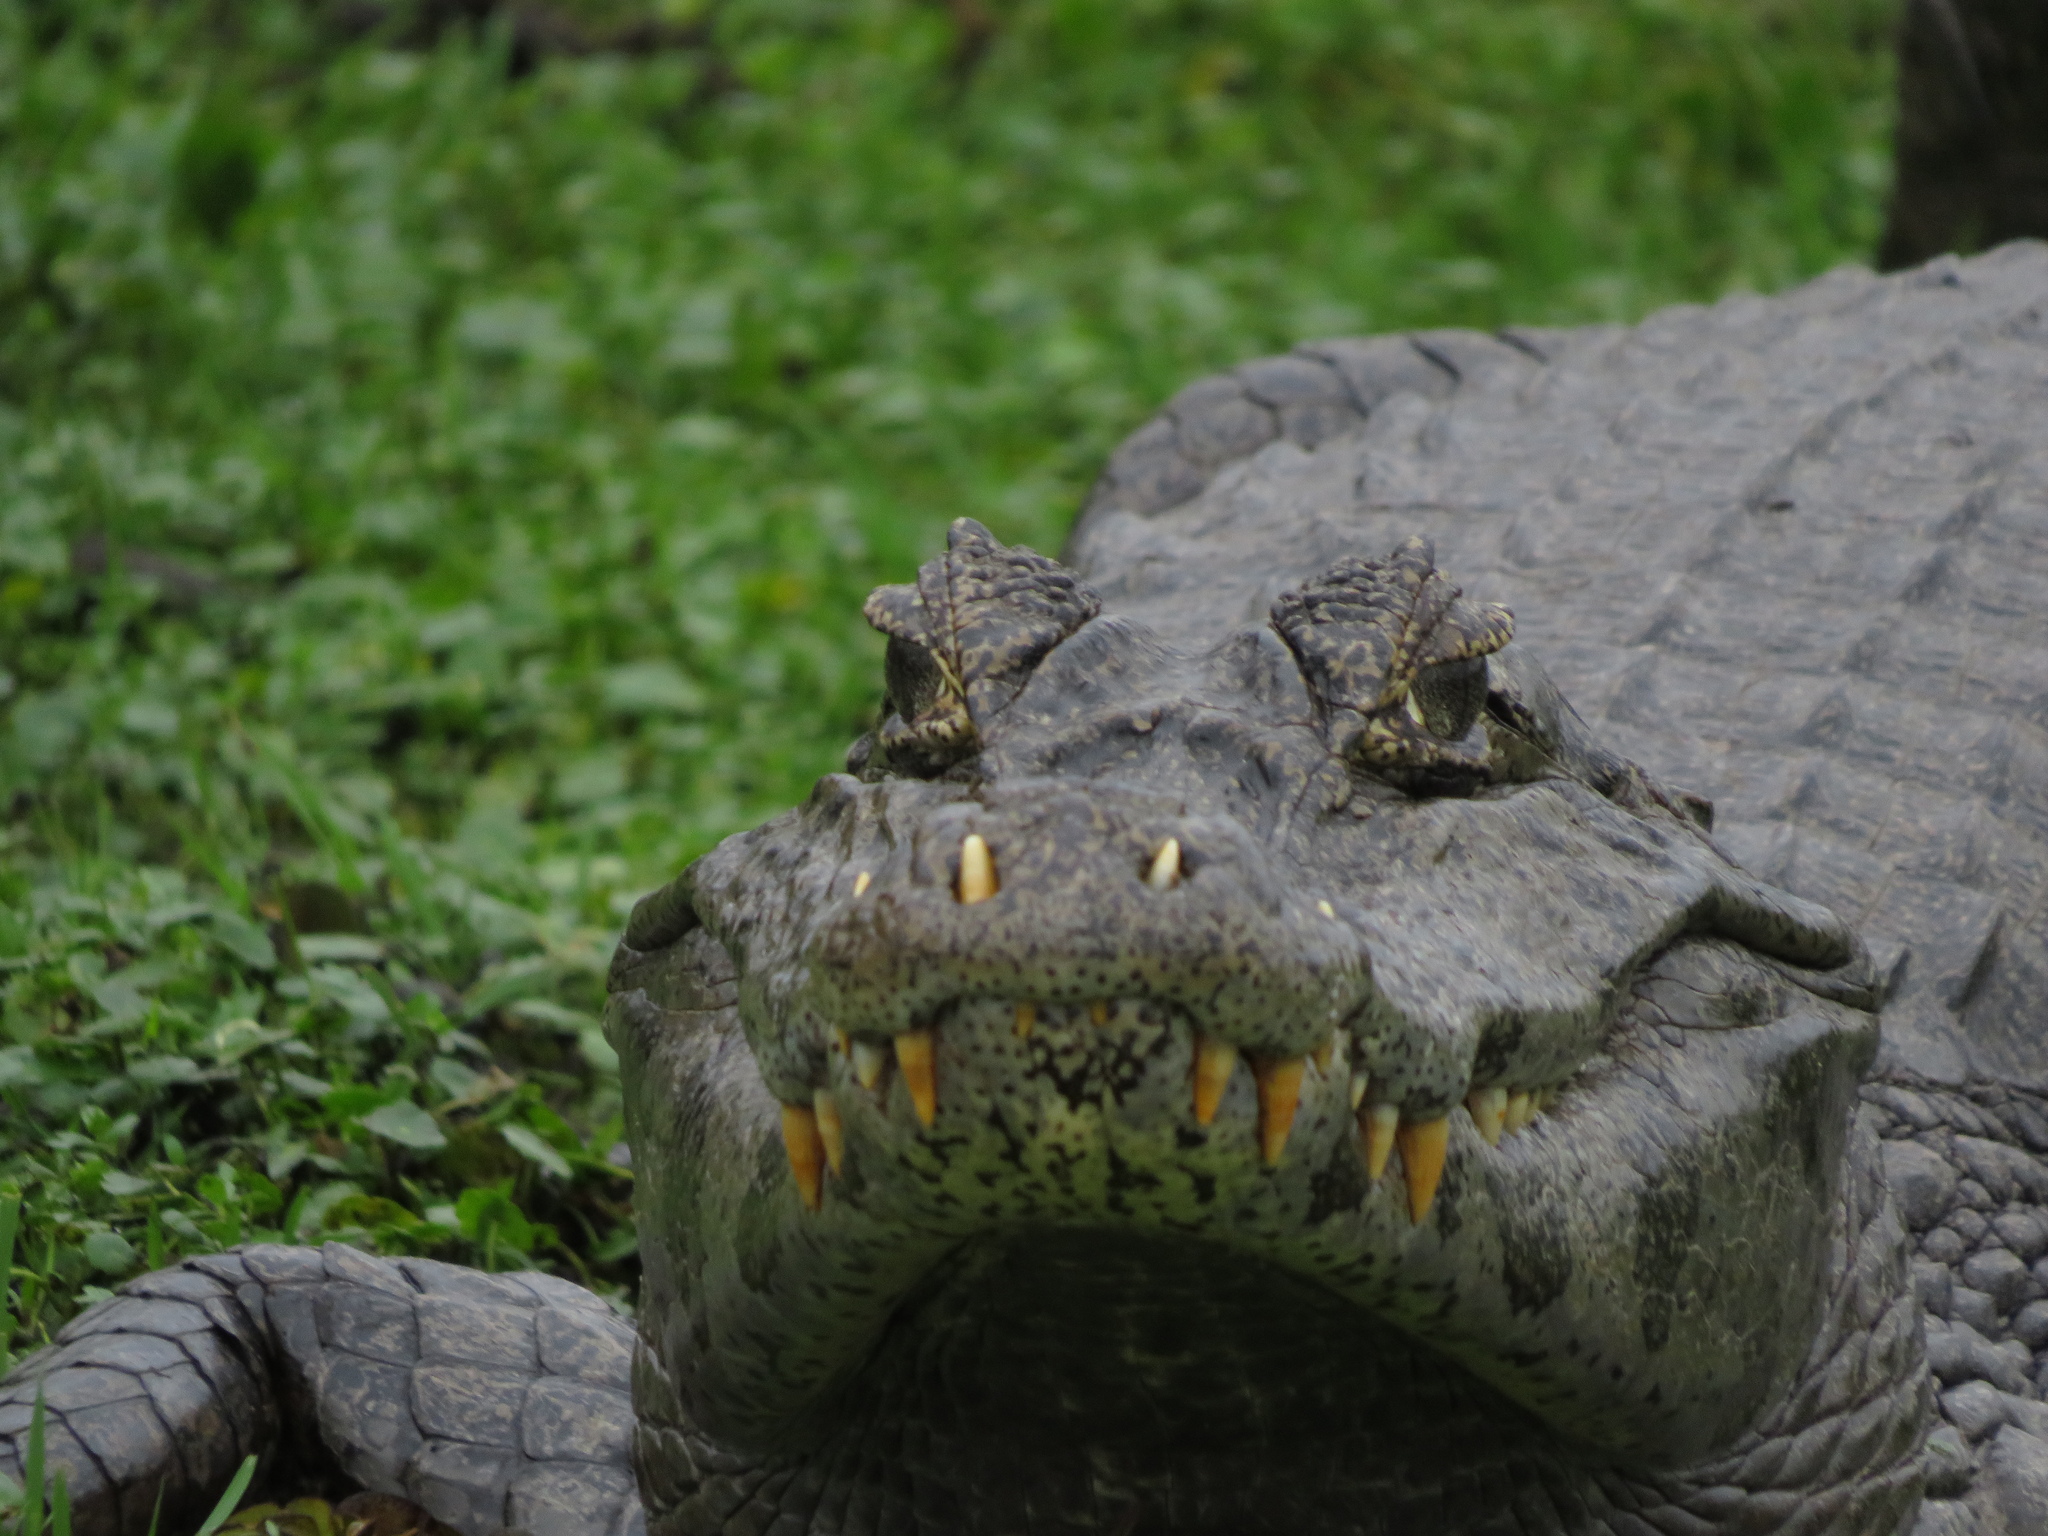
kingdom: Animalia
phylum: Chordata
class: Crocodylia
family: Alligatoridae
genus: Caiman
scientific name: Caiman yacare
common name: Yacare caiman
